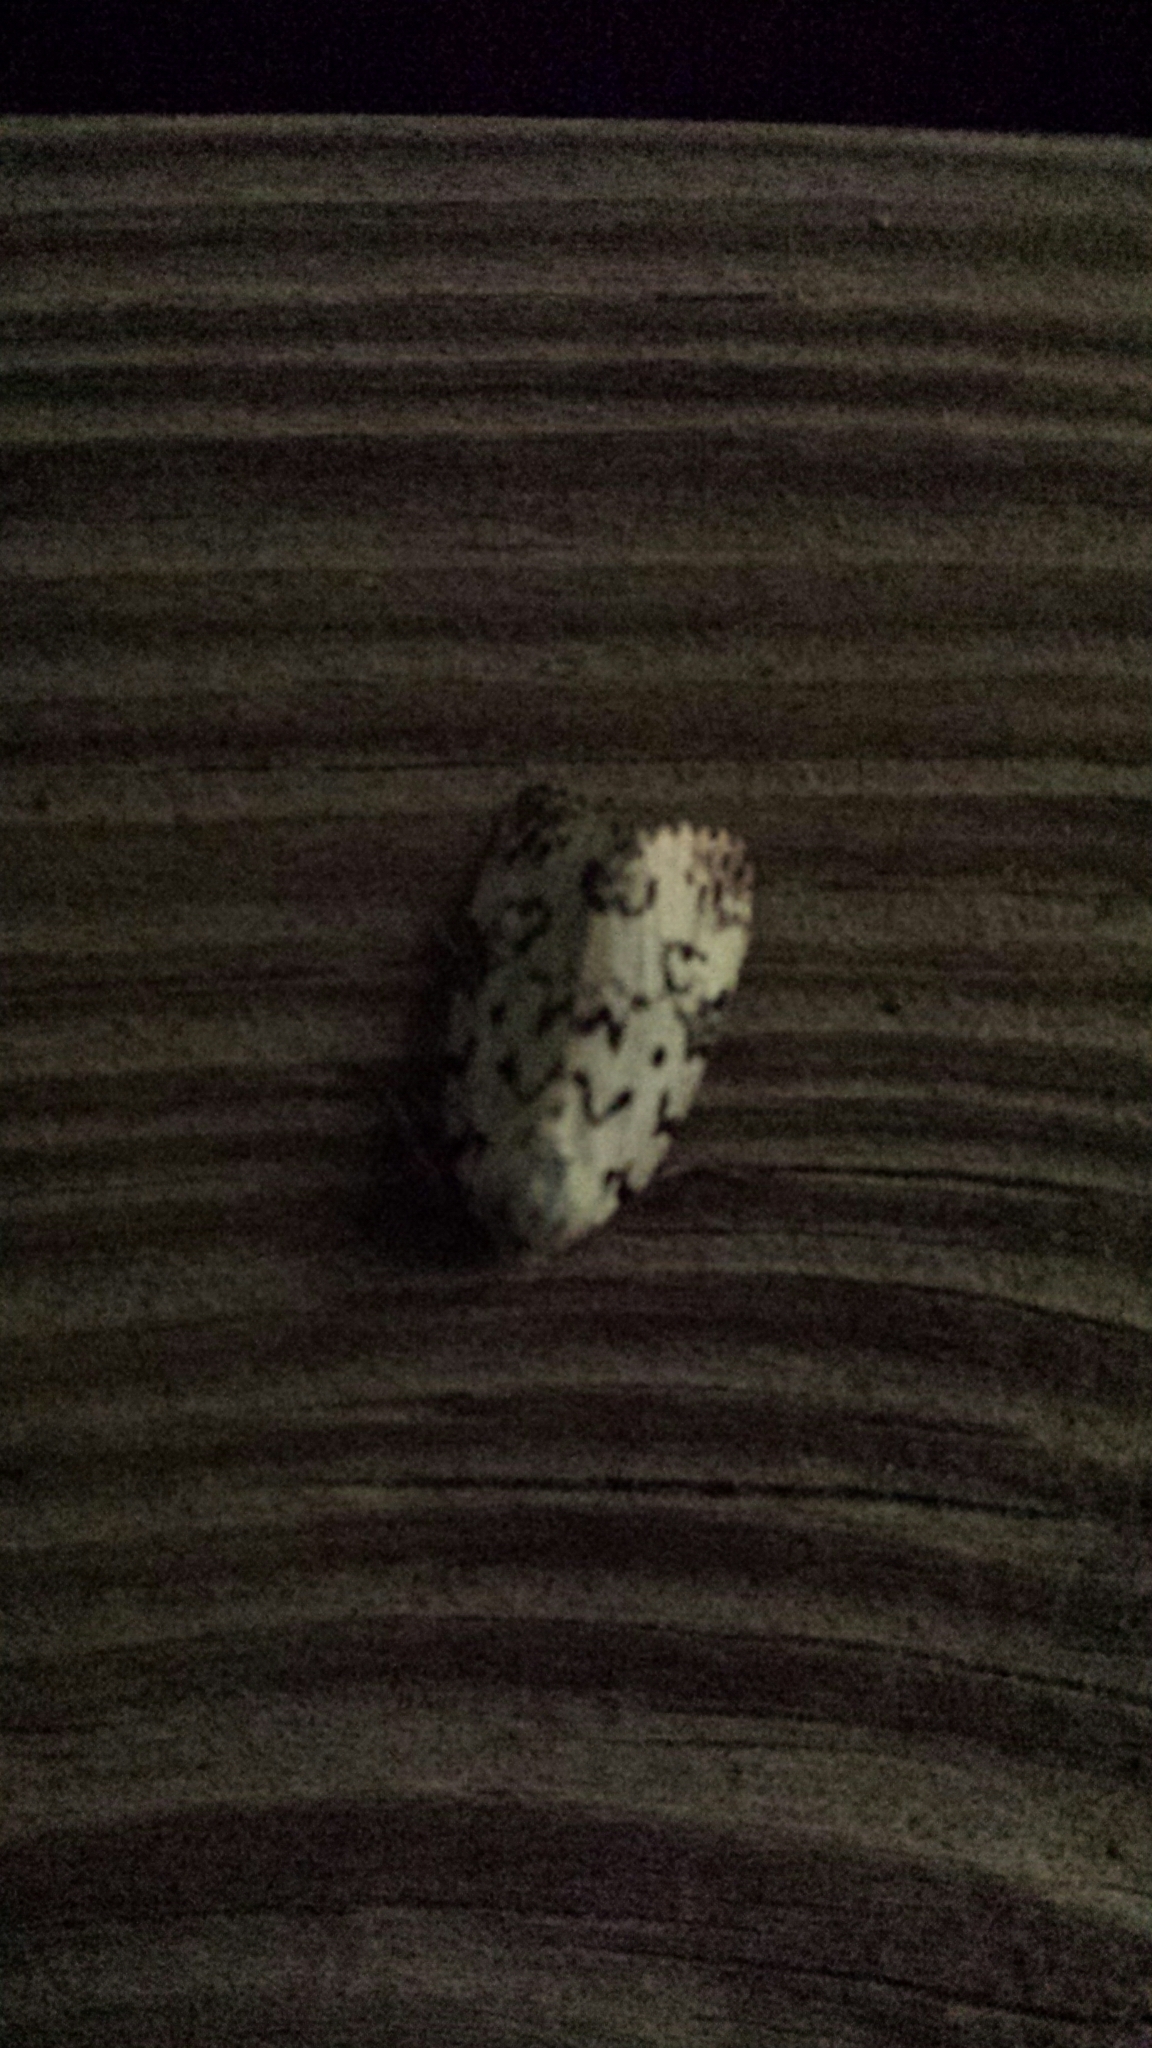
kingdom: Animalia
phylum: Arthropoda
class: Insecta
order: Lepidoptera
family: Noctuidae
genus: Polygrammate
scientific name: Polygrammate hebraeicum
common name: Hebrew moth
